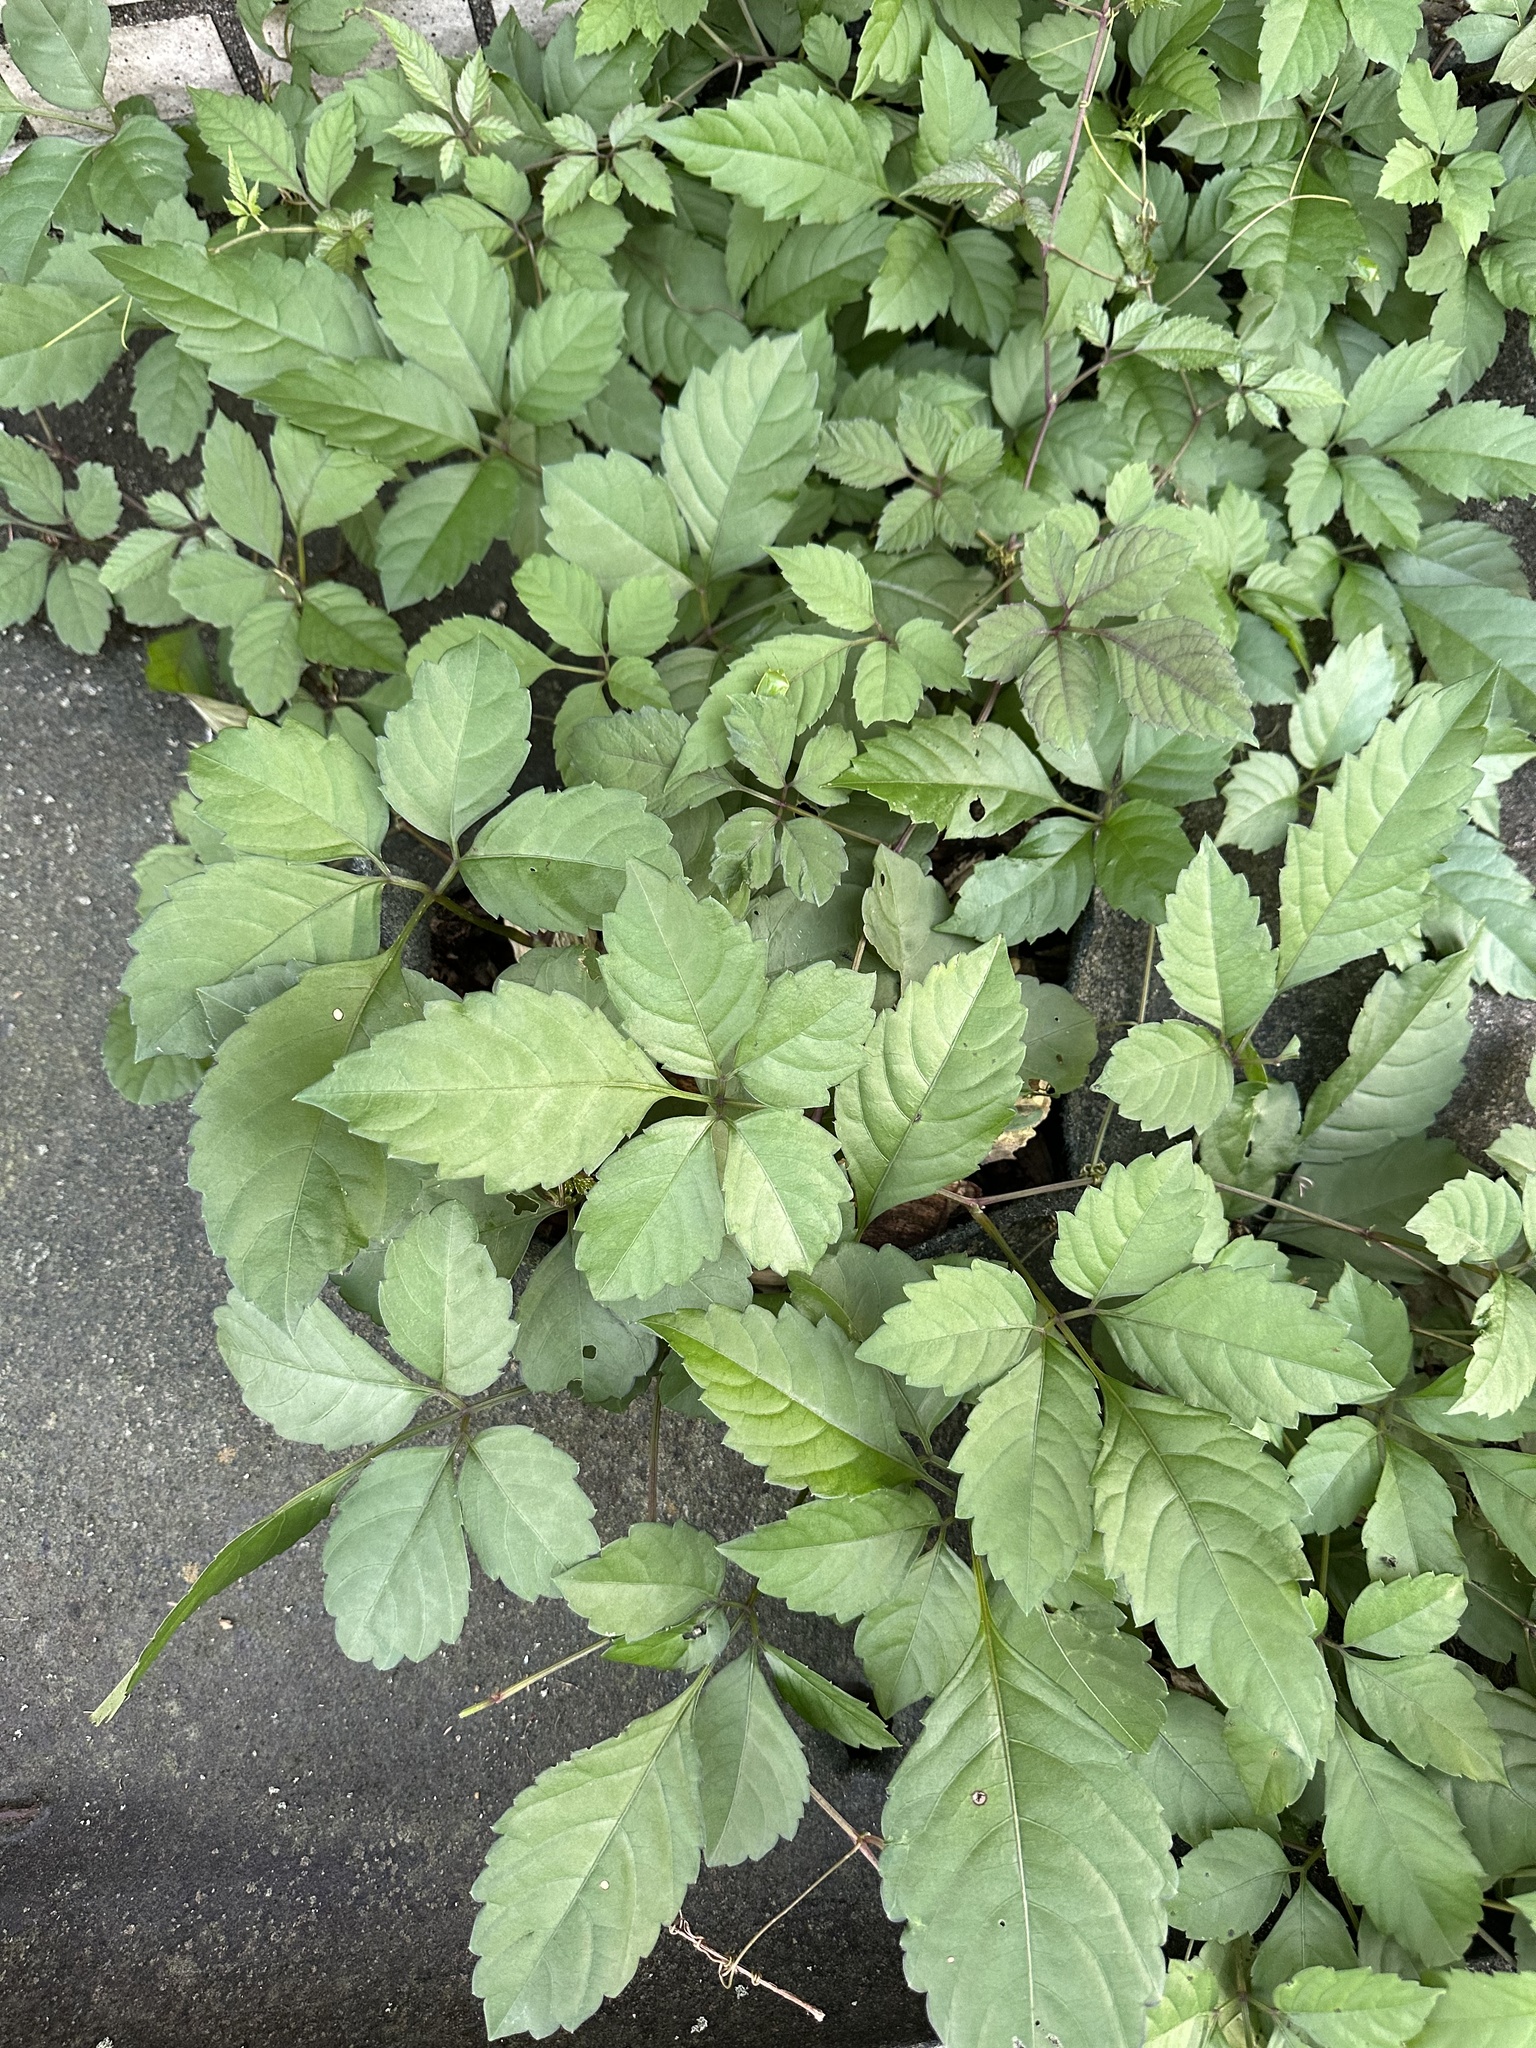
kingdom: Plantae
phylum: Tracheophyta
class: Magnoliopsida
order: Vitales
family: Vitaceae
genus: Causonis
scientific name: Causonis japonica
